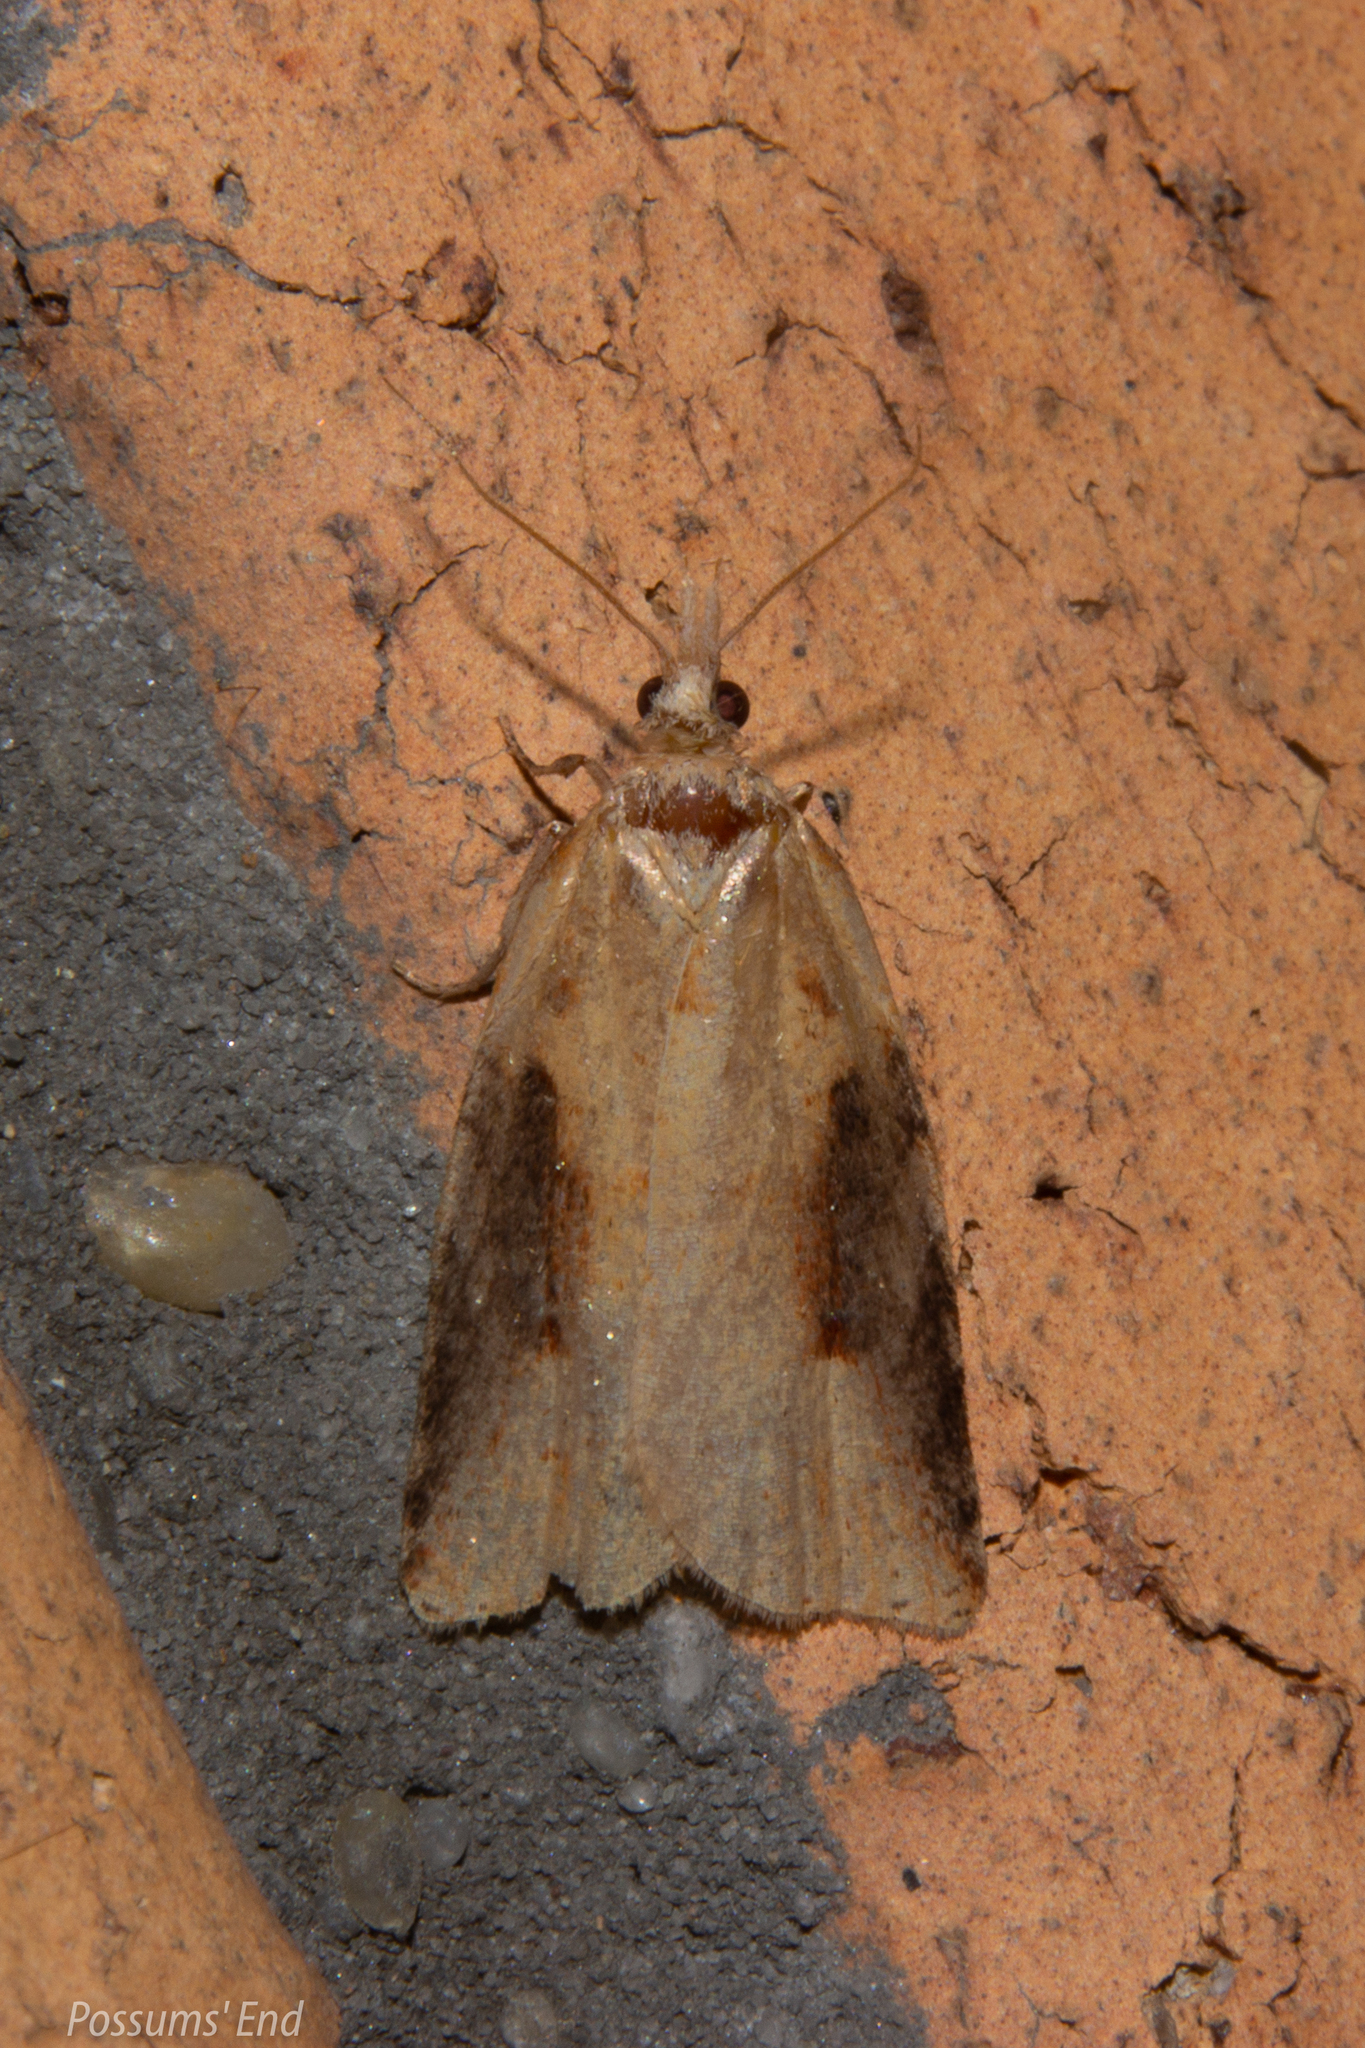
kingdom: Animalia
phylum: Arthropoda
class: Insecta
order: Lepidoptera
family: Tortricidae
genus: Apoctena
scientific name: Apoctena conditana
